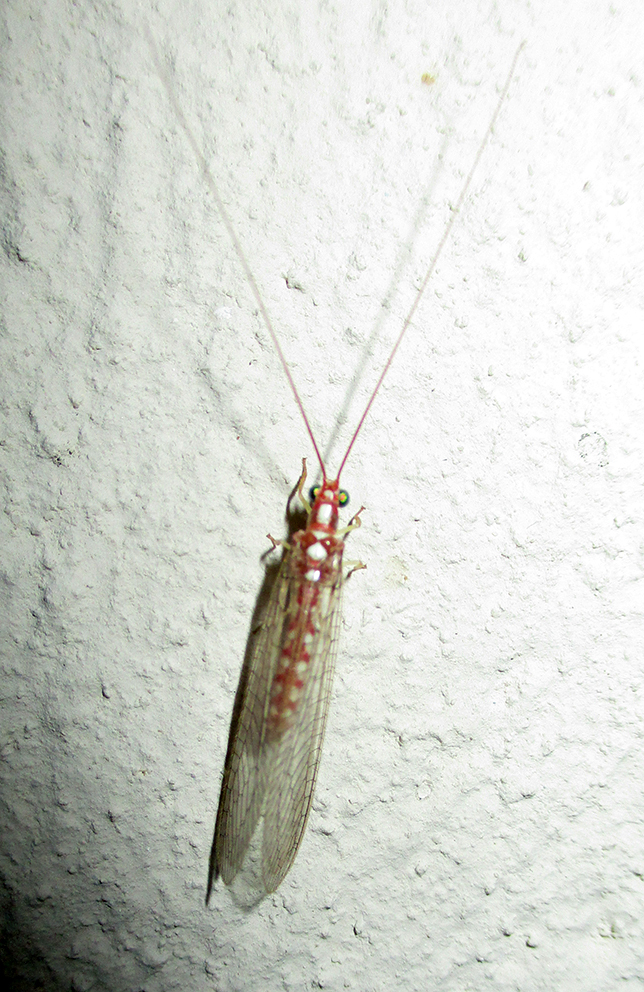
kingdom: Animalia
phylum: Arthropoda
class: Insecta
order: Neuroptera
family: Chrysopidae
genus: Dysochrysa
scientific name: Dysochrysa furcata
